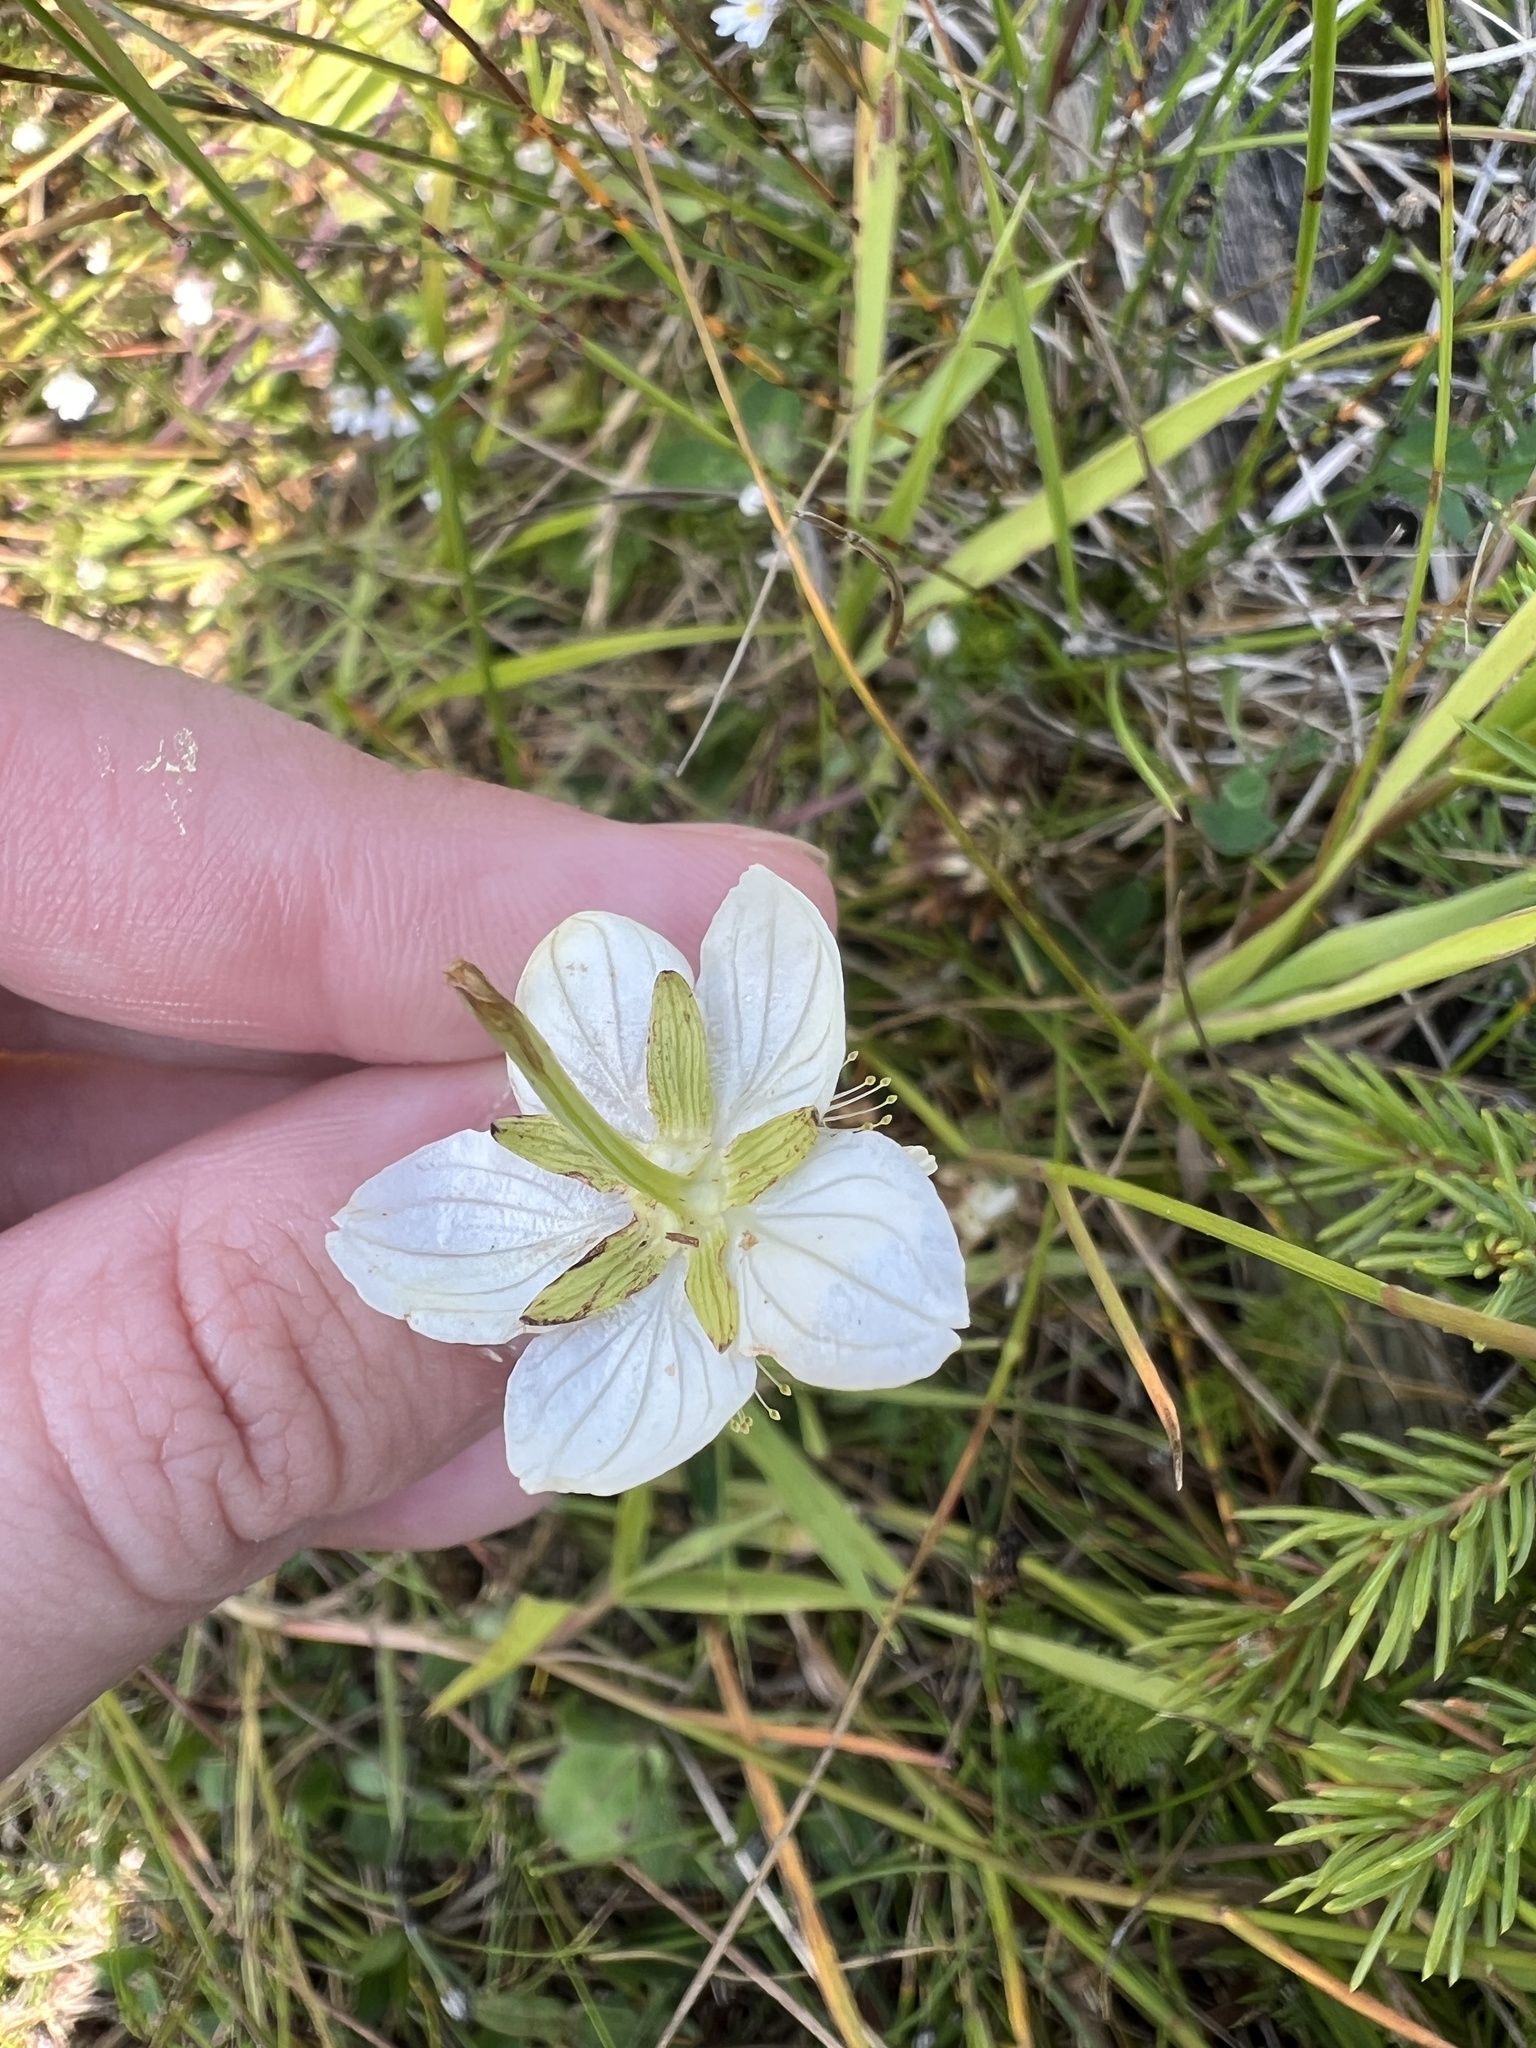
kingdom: Plantae
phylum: Tracheophyta
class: Magnoliopsida
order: Celastrales
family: Parnassiaceae
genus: Parnassia
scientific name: Parnassia palustris
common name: Grass-of-parnassus
